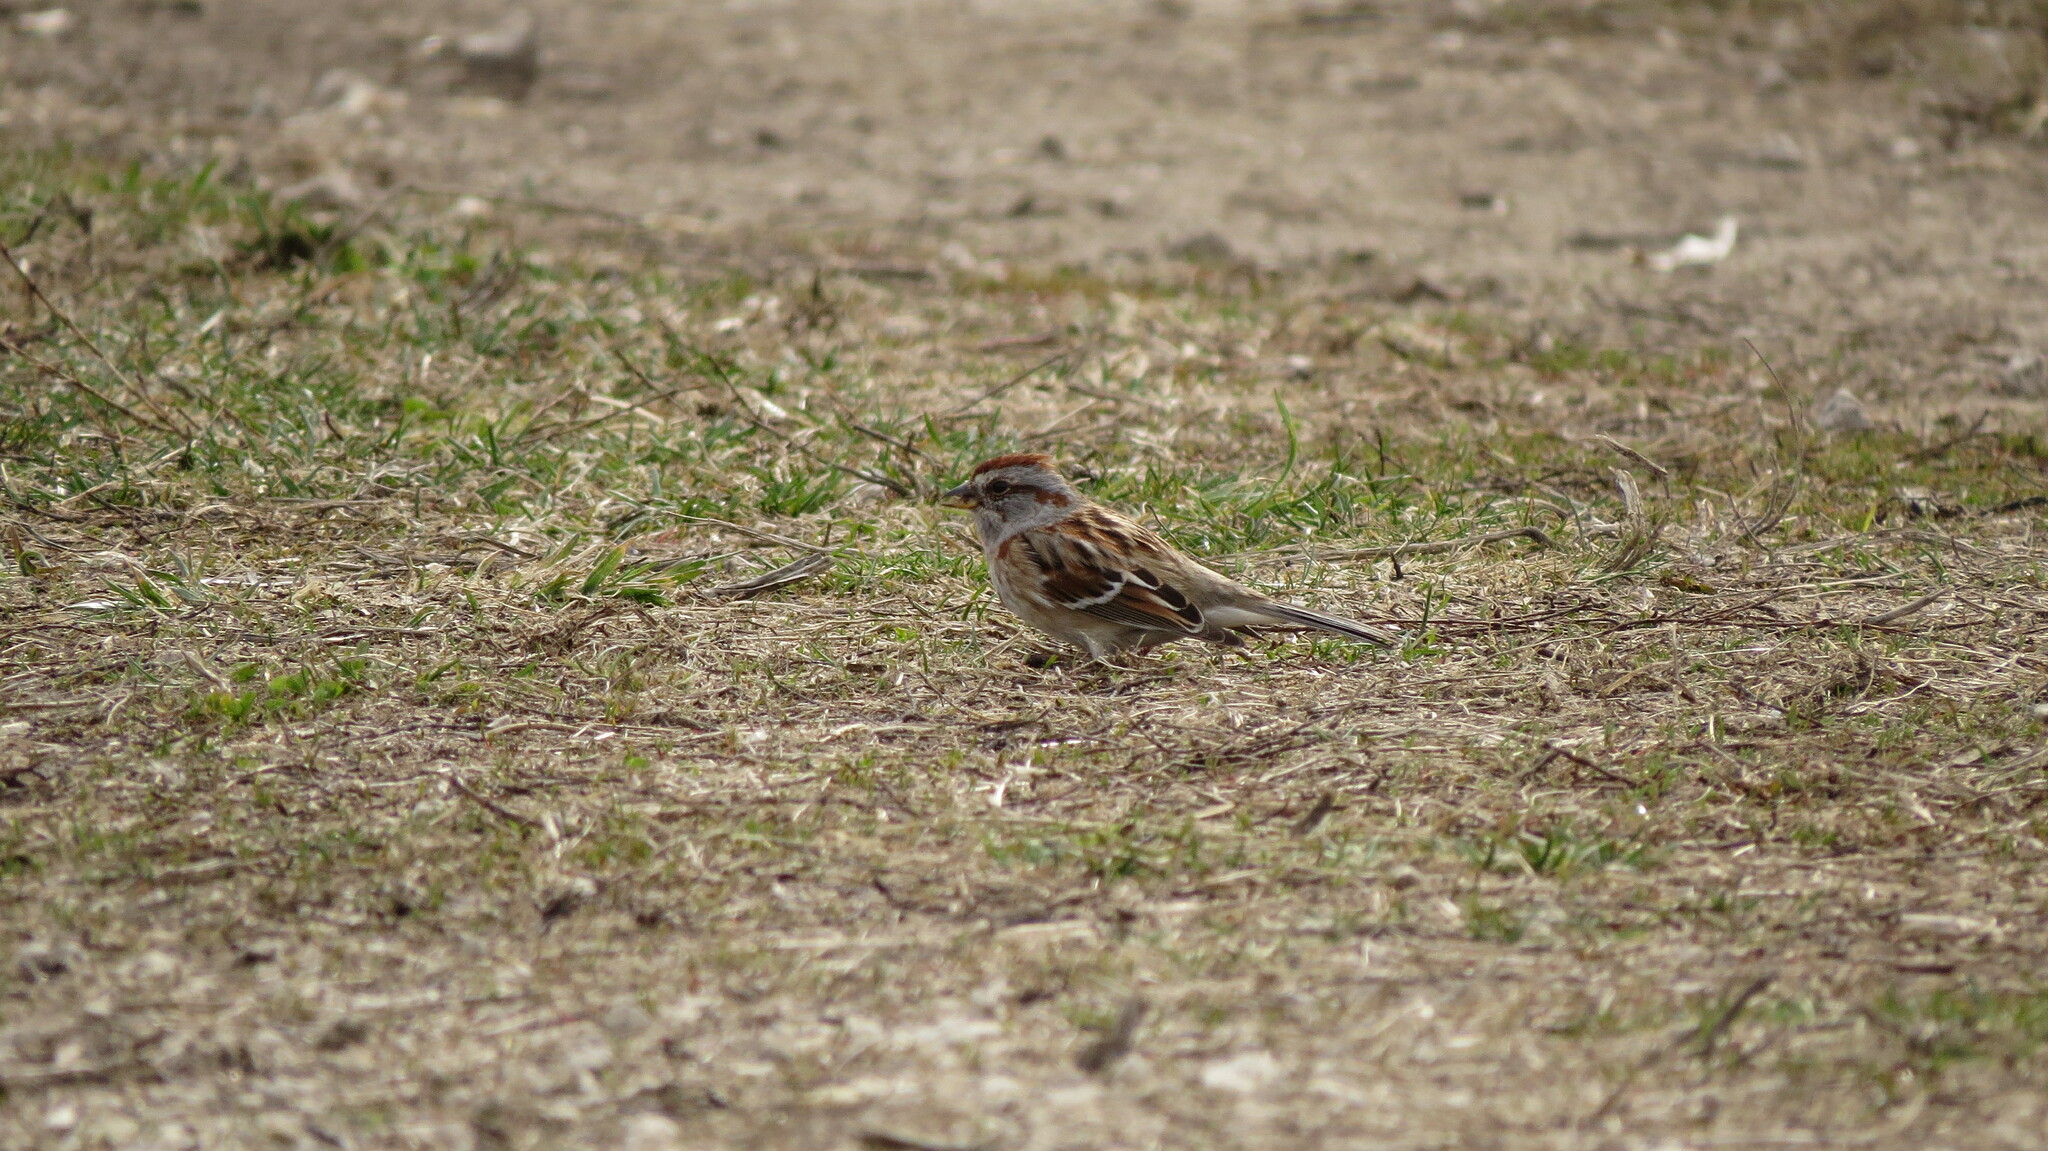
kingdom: Animalia
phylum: Chordata
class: Aves
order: Passeriformes
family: Passerellidae
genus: Spizelloides
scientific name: Spizelloides arborea
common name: American tree sparrow
